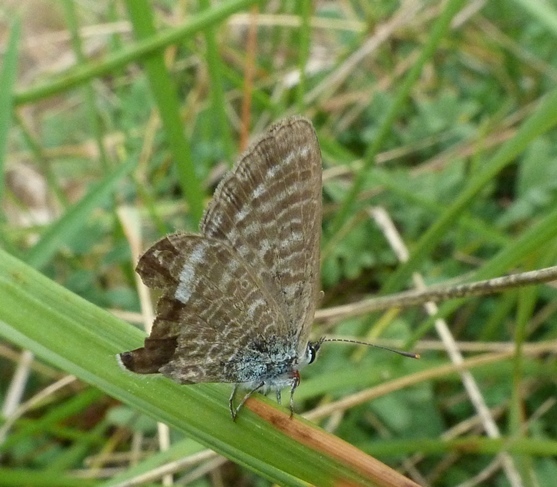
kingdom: Animalia
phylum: Arthropoda
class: Insecta
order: Lepidoptera
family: Lycaenidae
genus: Lampides
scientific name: Lampides boeticus
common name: Long-tailed blue
